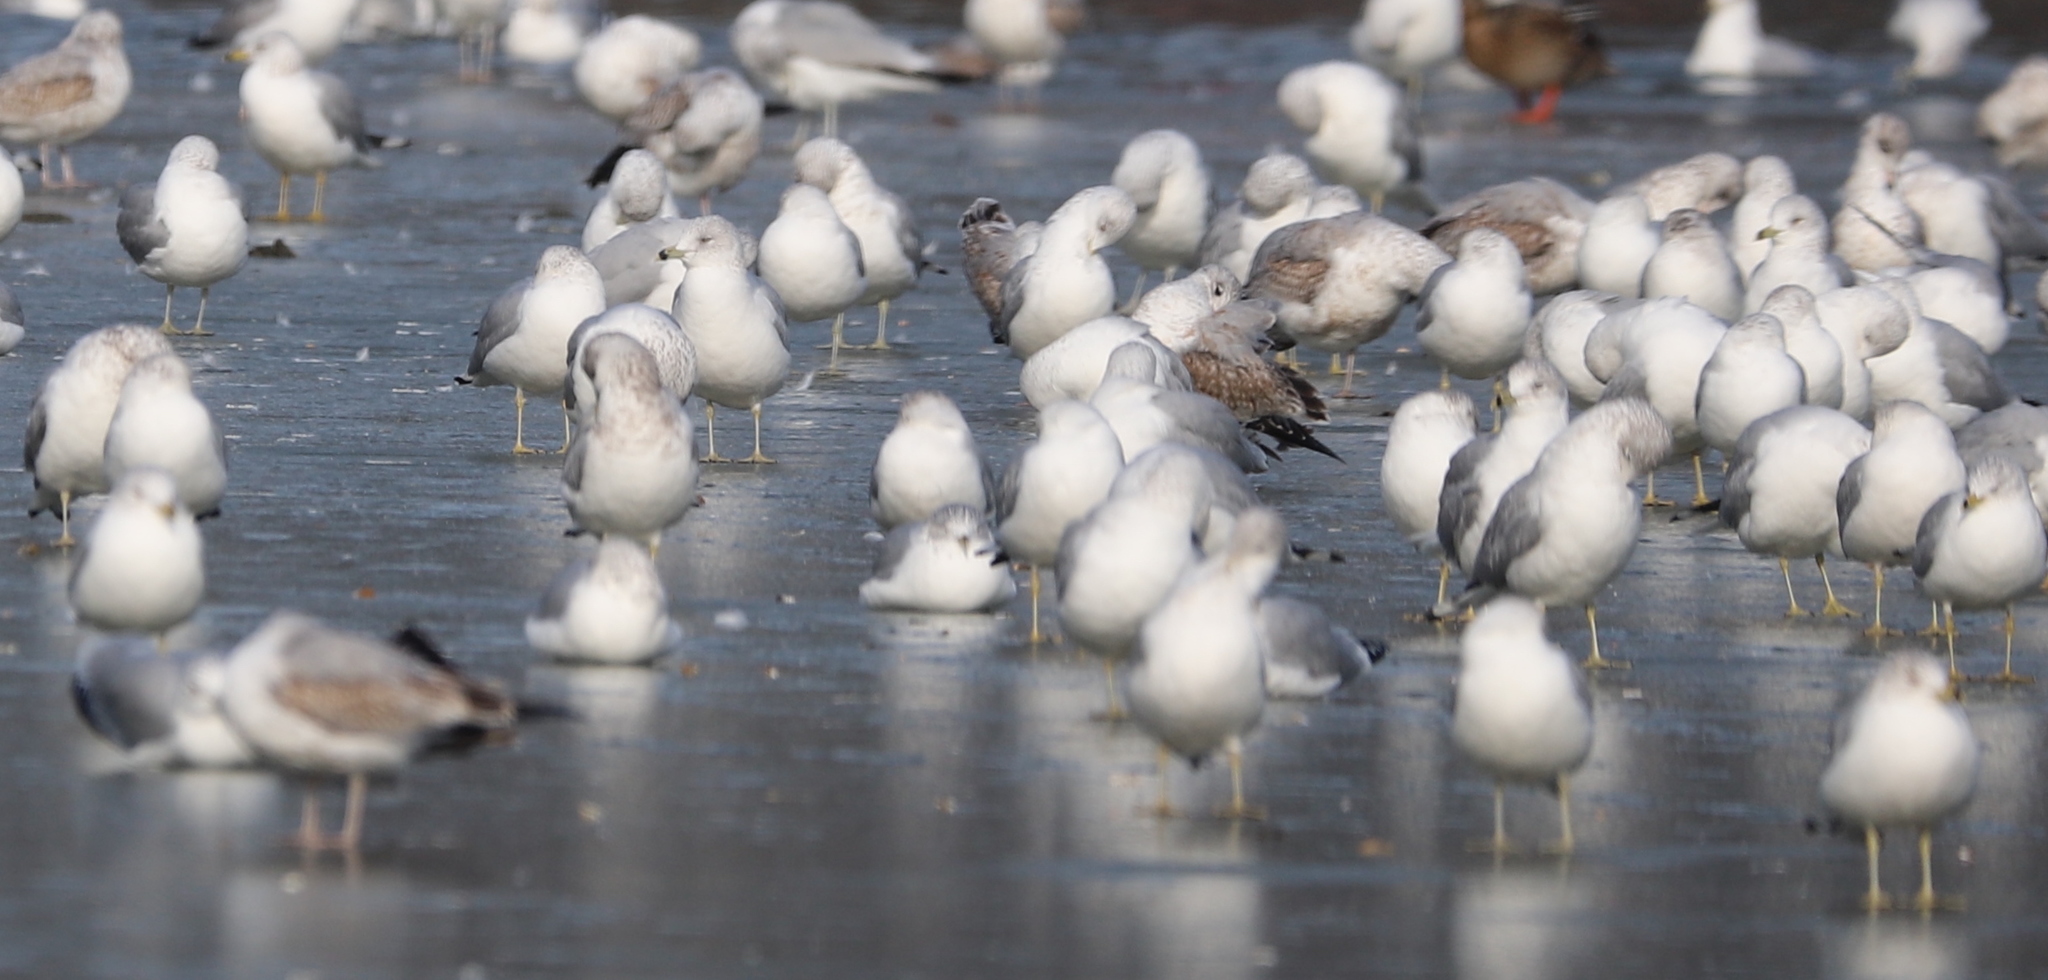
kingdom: Animalia
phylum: Chordata
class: Aves
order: Charadriiformes
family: Laridae
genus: Larus
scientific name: Larus delawarensis
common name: Ring-billed gull
